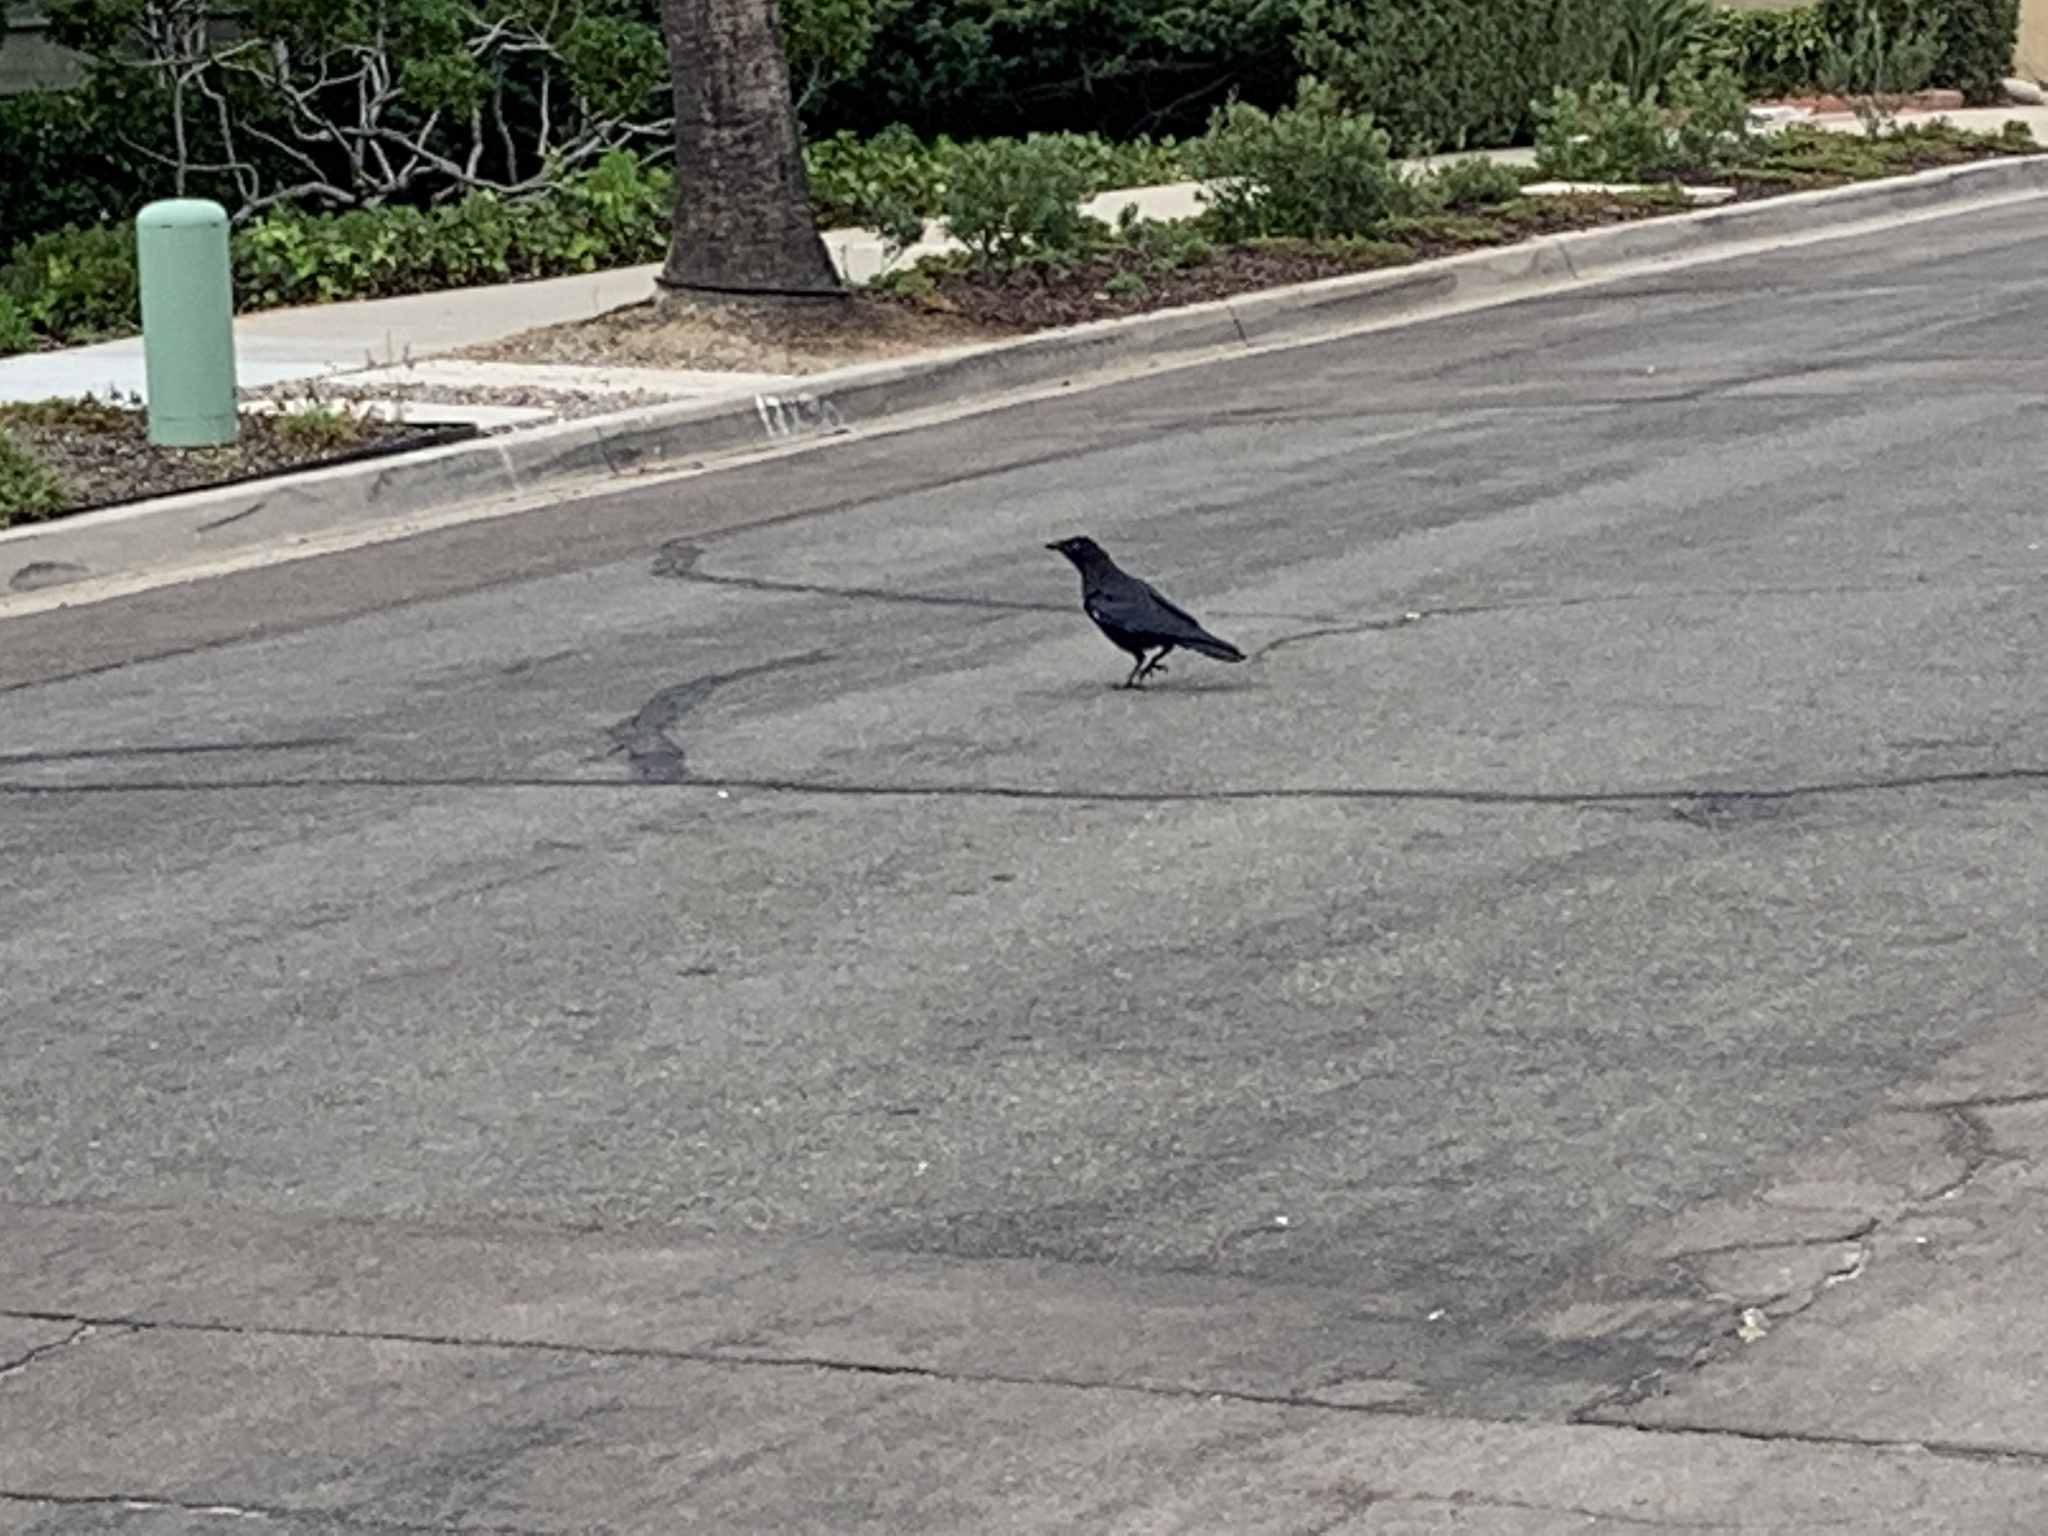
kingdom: Animalia
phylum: Chordata
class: Aves
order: Passeriformes
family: Corvidae
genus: Corvus
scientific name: Corvus brachyrhynchos
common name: American crow
